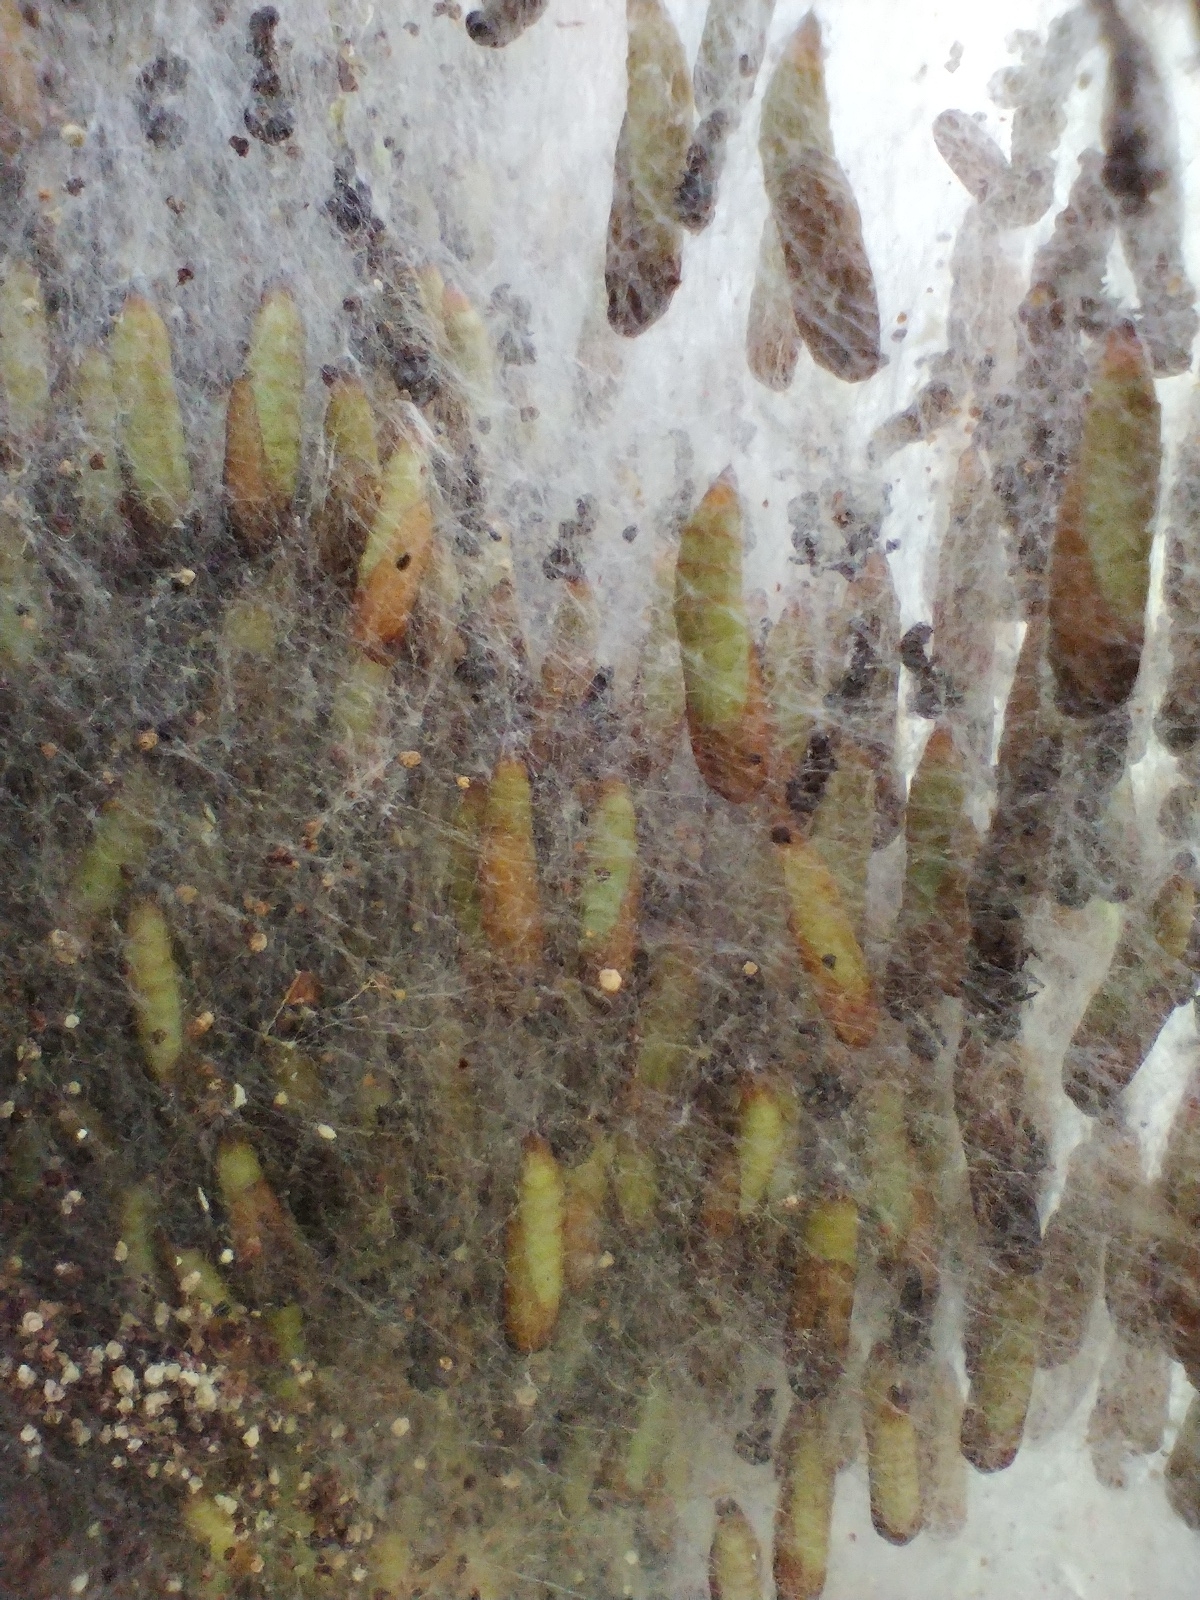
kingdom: Animalia
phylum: Arthropoda
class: Insecta
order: Lepidoptera
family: Yponomeutidae
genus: Yponomeuta
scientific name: Yponomeuta padella
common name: Orchard ermine
